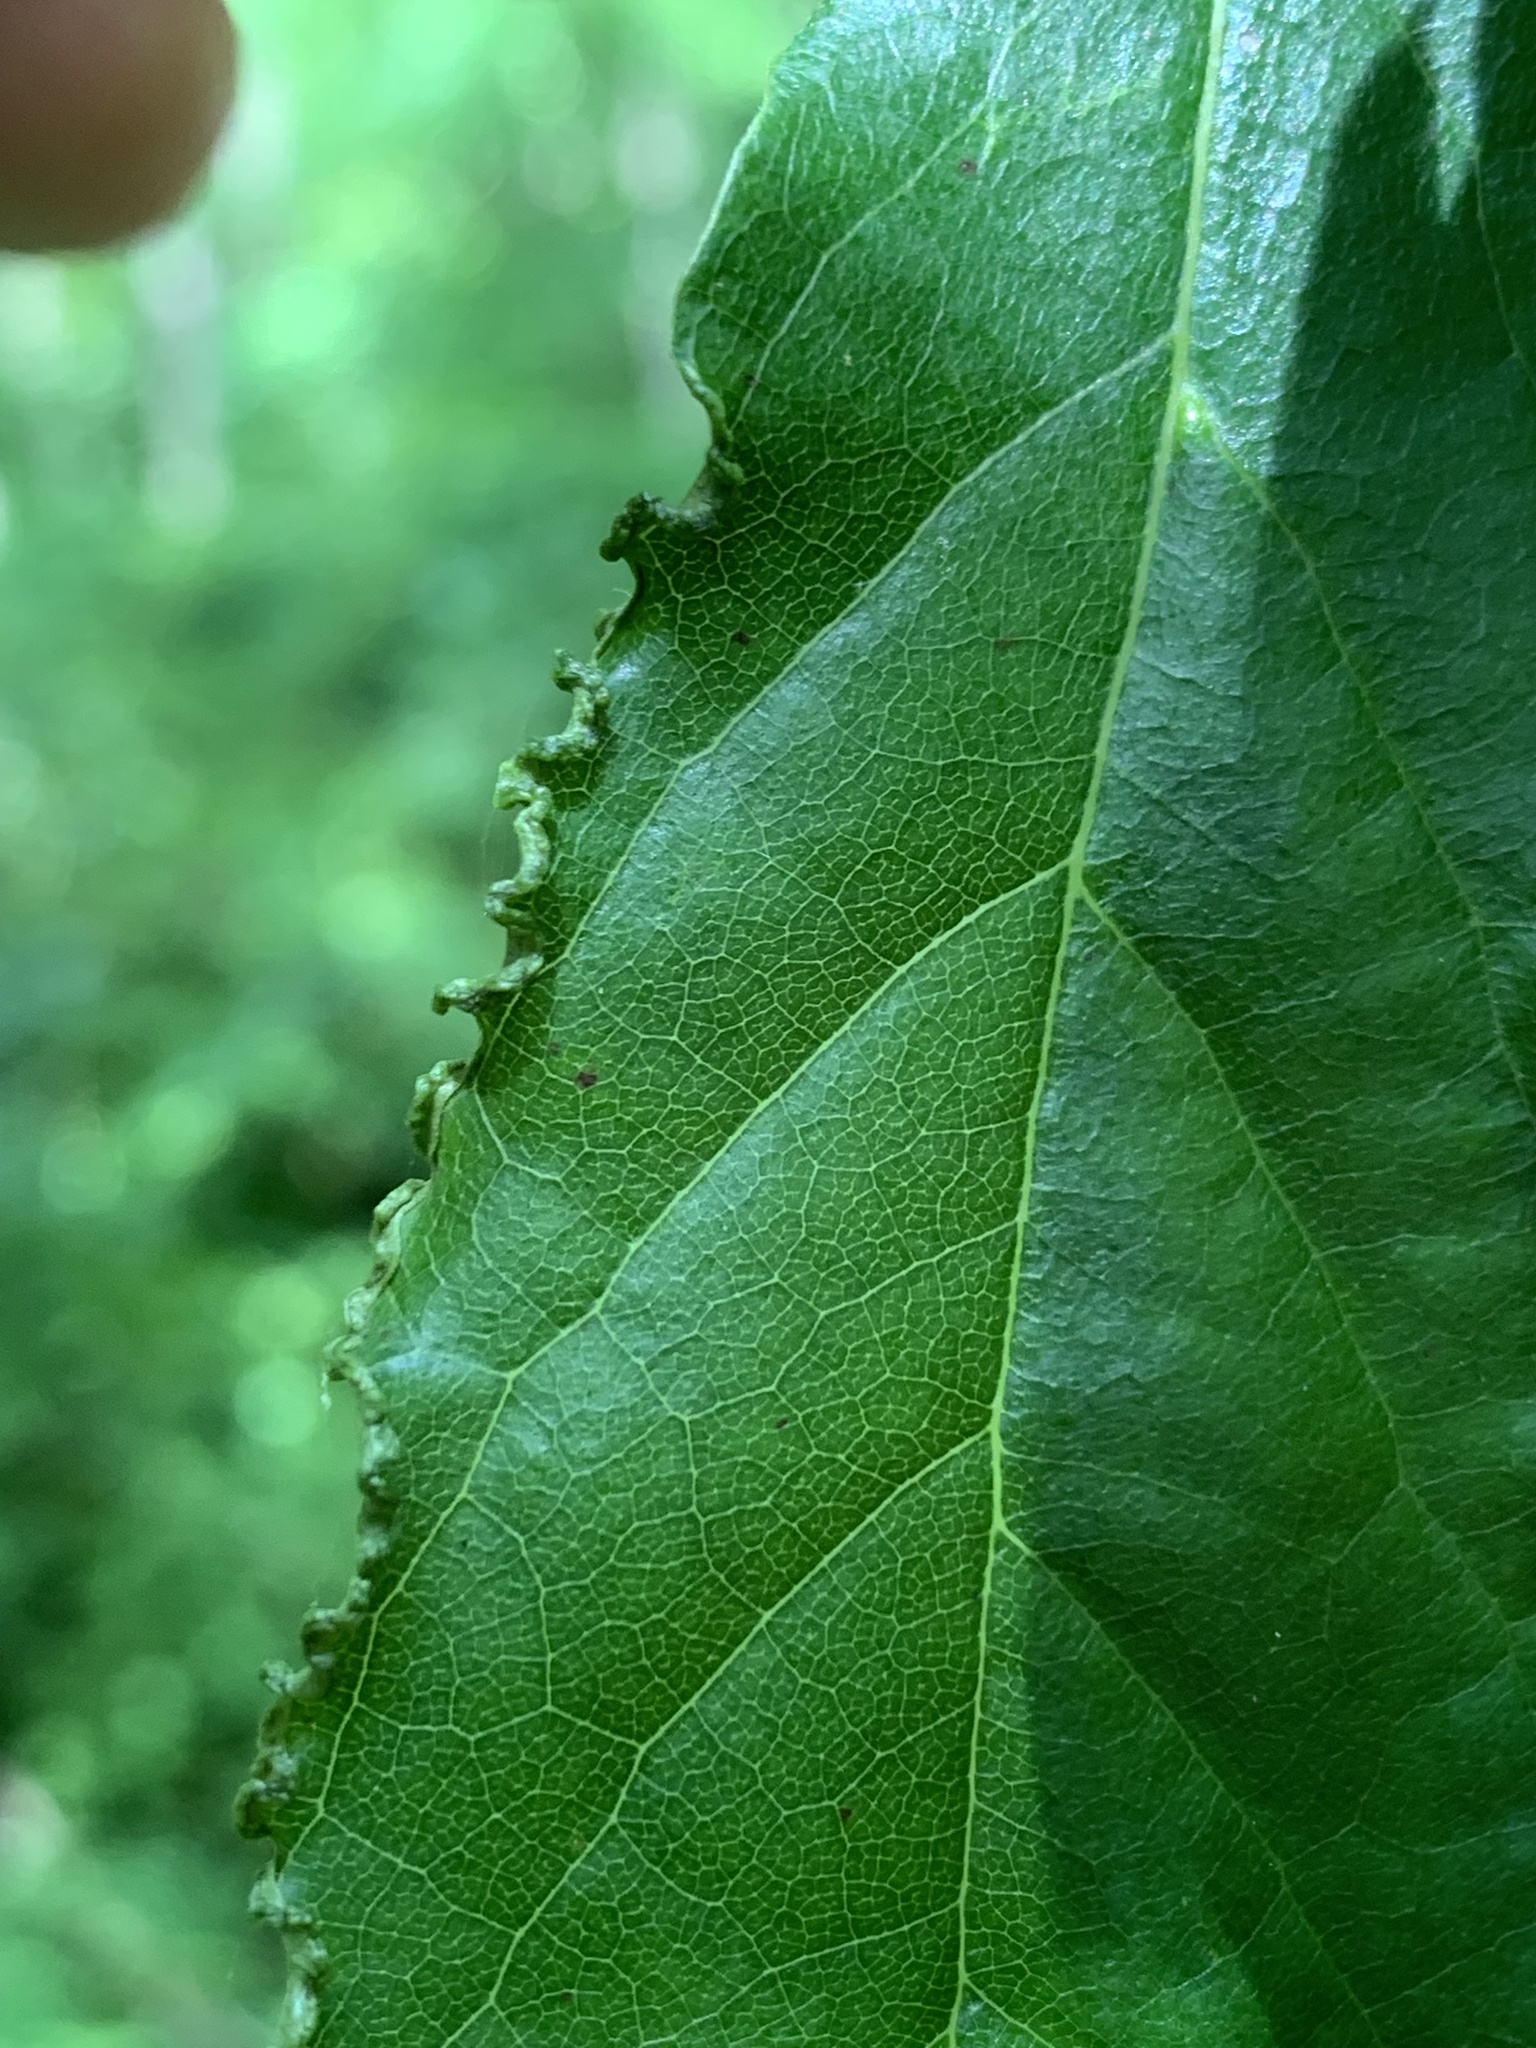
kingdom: Animalia
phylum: Arthropoda
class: Arachnida
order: Trombidiformes
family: Eriophyidae
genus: Aceria
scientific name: Aceria
